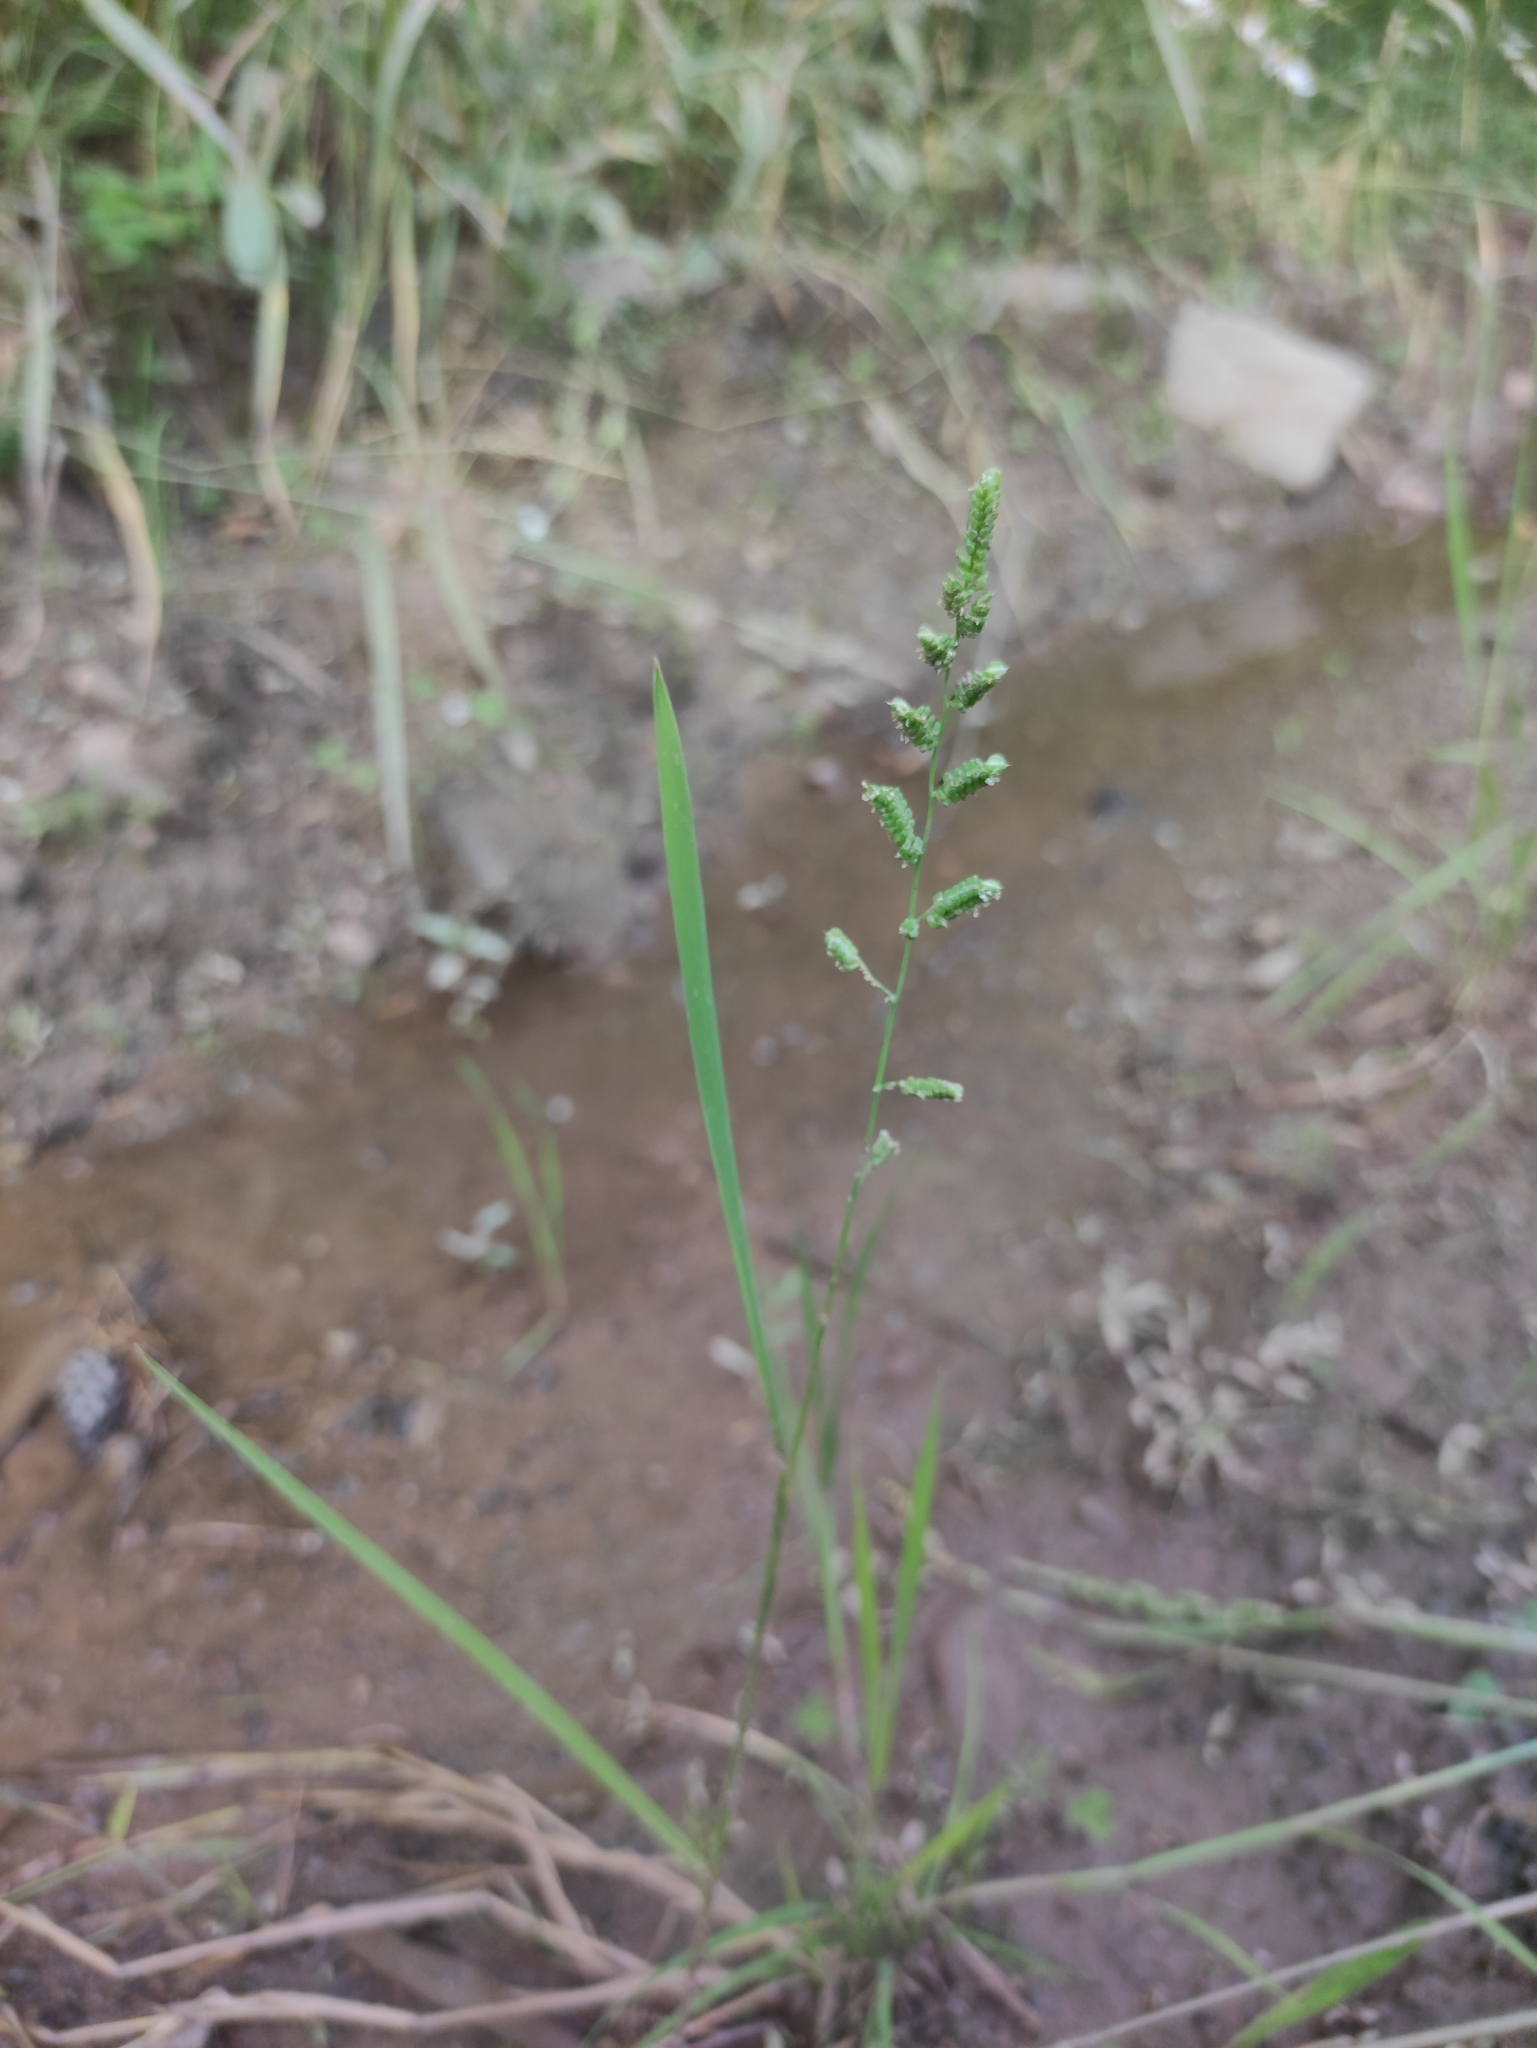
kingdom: Plantae
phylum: Tracheophyta
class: Liliopsida
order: Poales
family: Poaceae
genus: Beckmannia
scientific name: Beckmannia syzigachne
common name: American slough-grass
